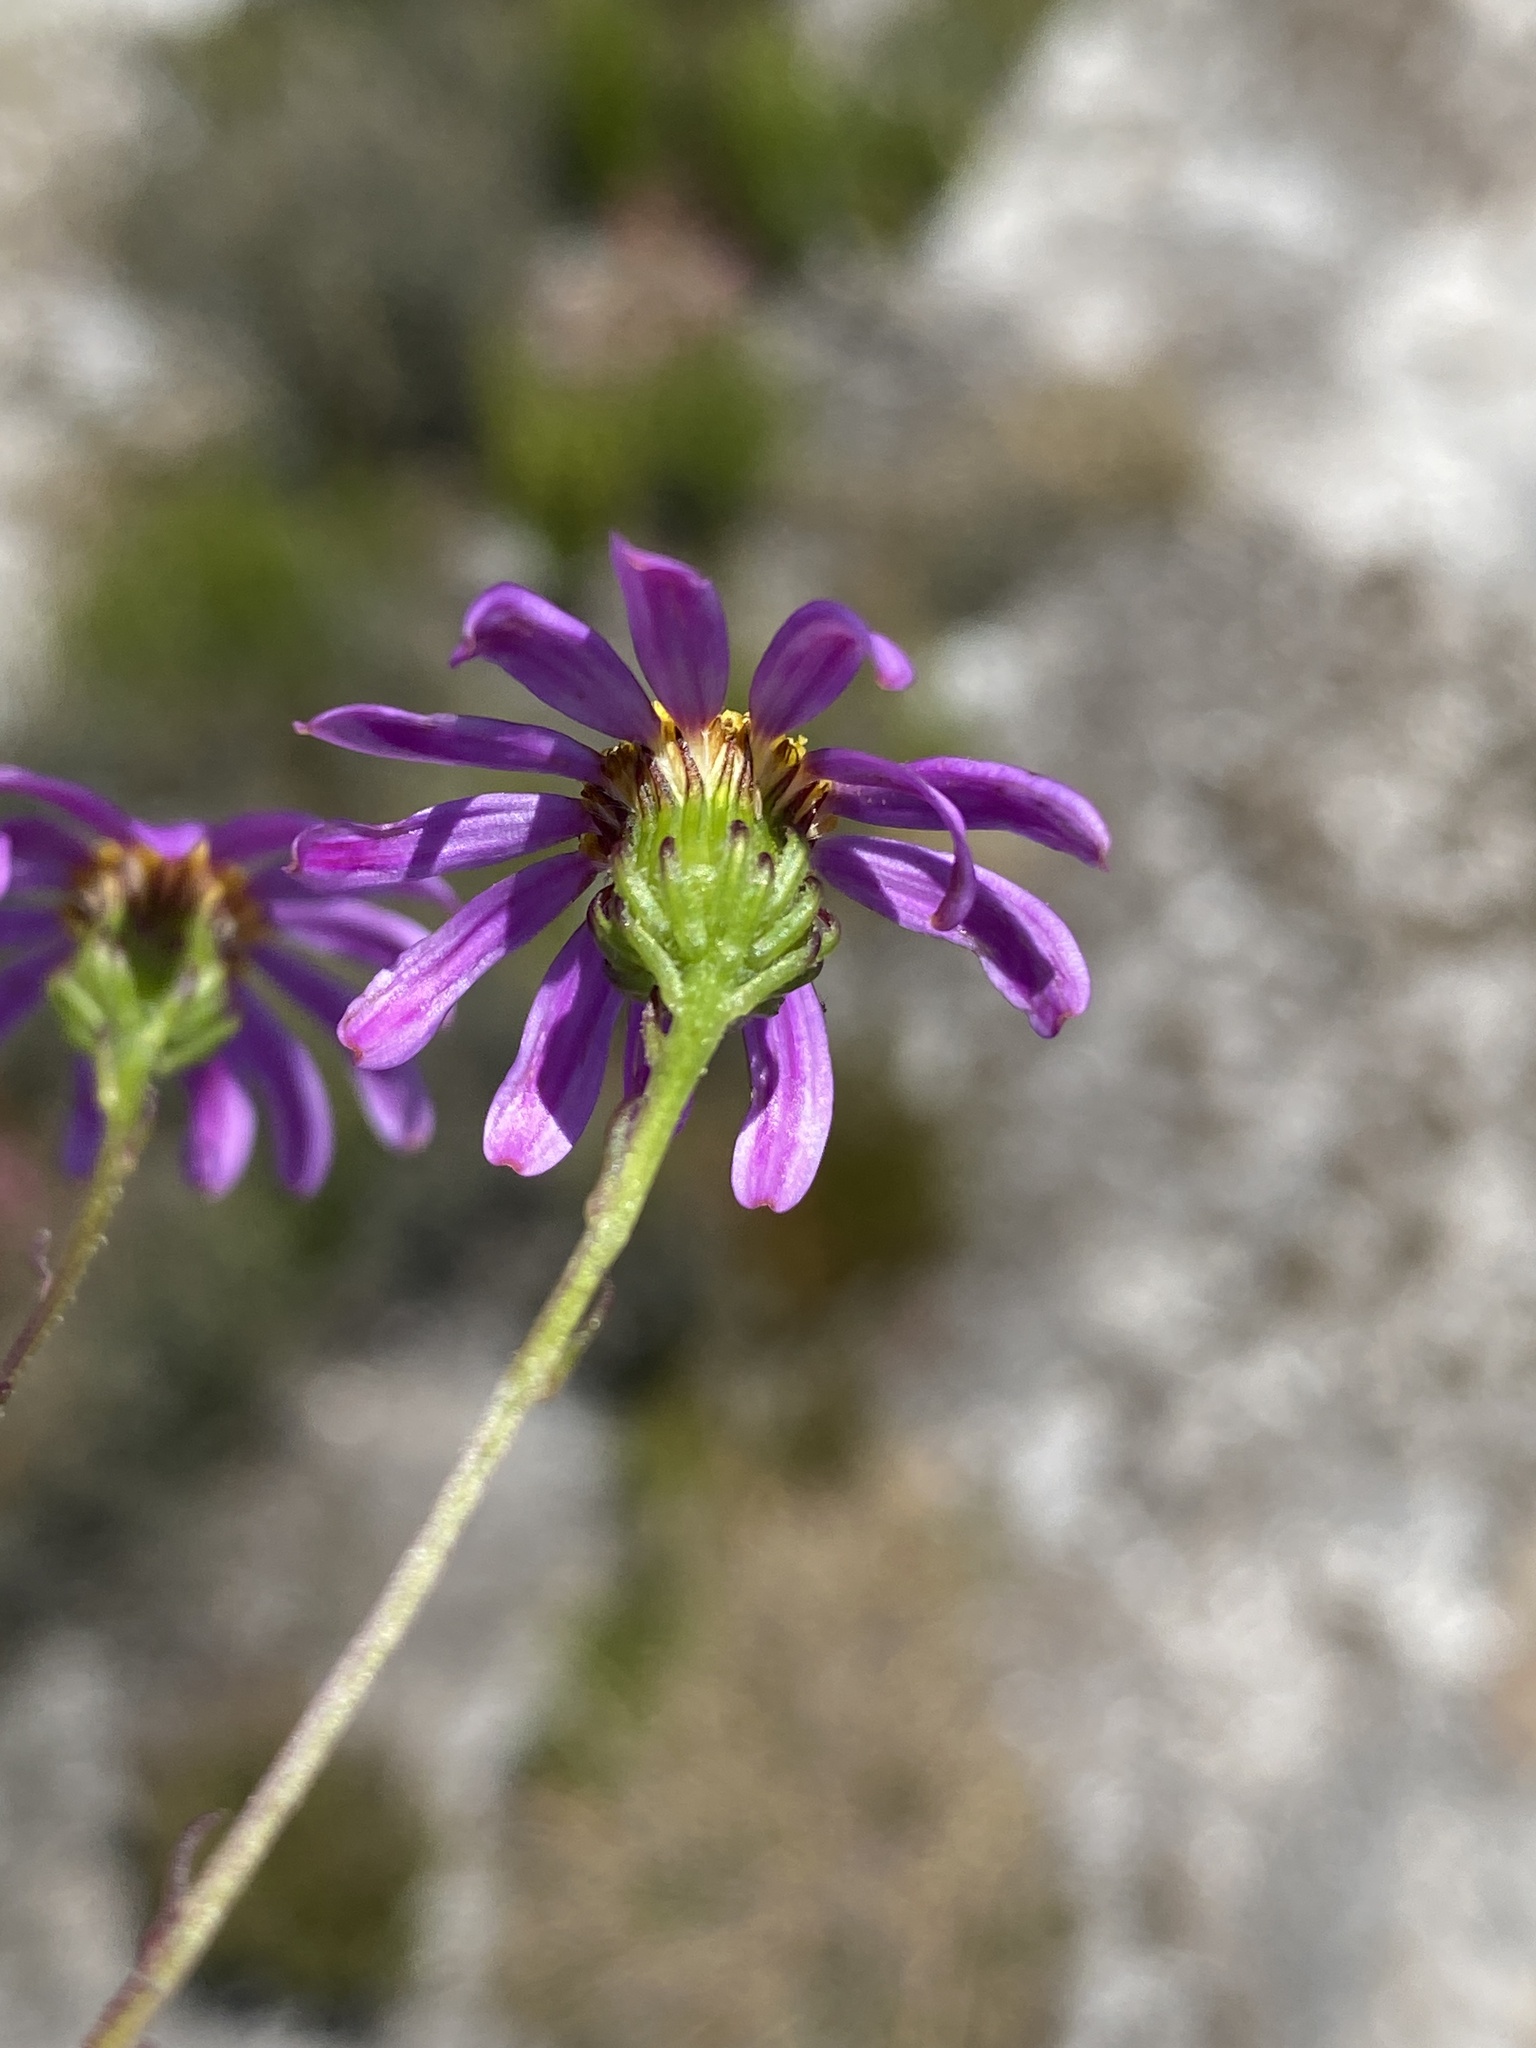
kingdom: Plantae
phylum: Tracheophyta
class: Magnoliopsida
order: Asterales
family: Asteraceae
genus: Senecio
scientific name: Senecio umbellatus
